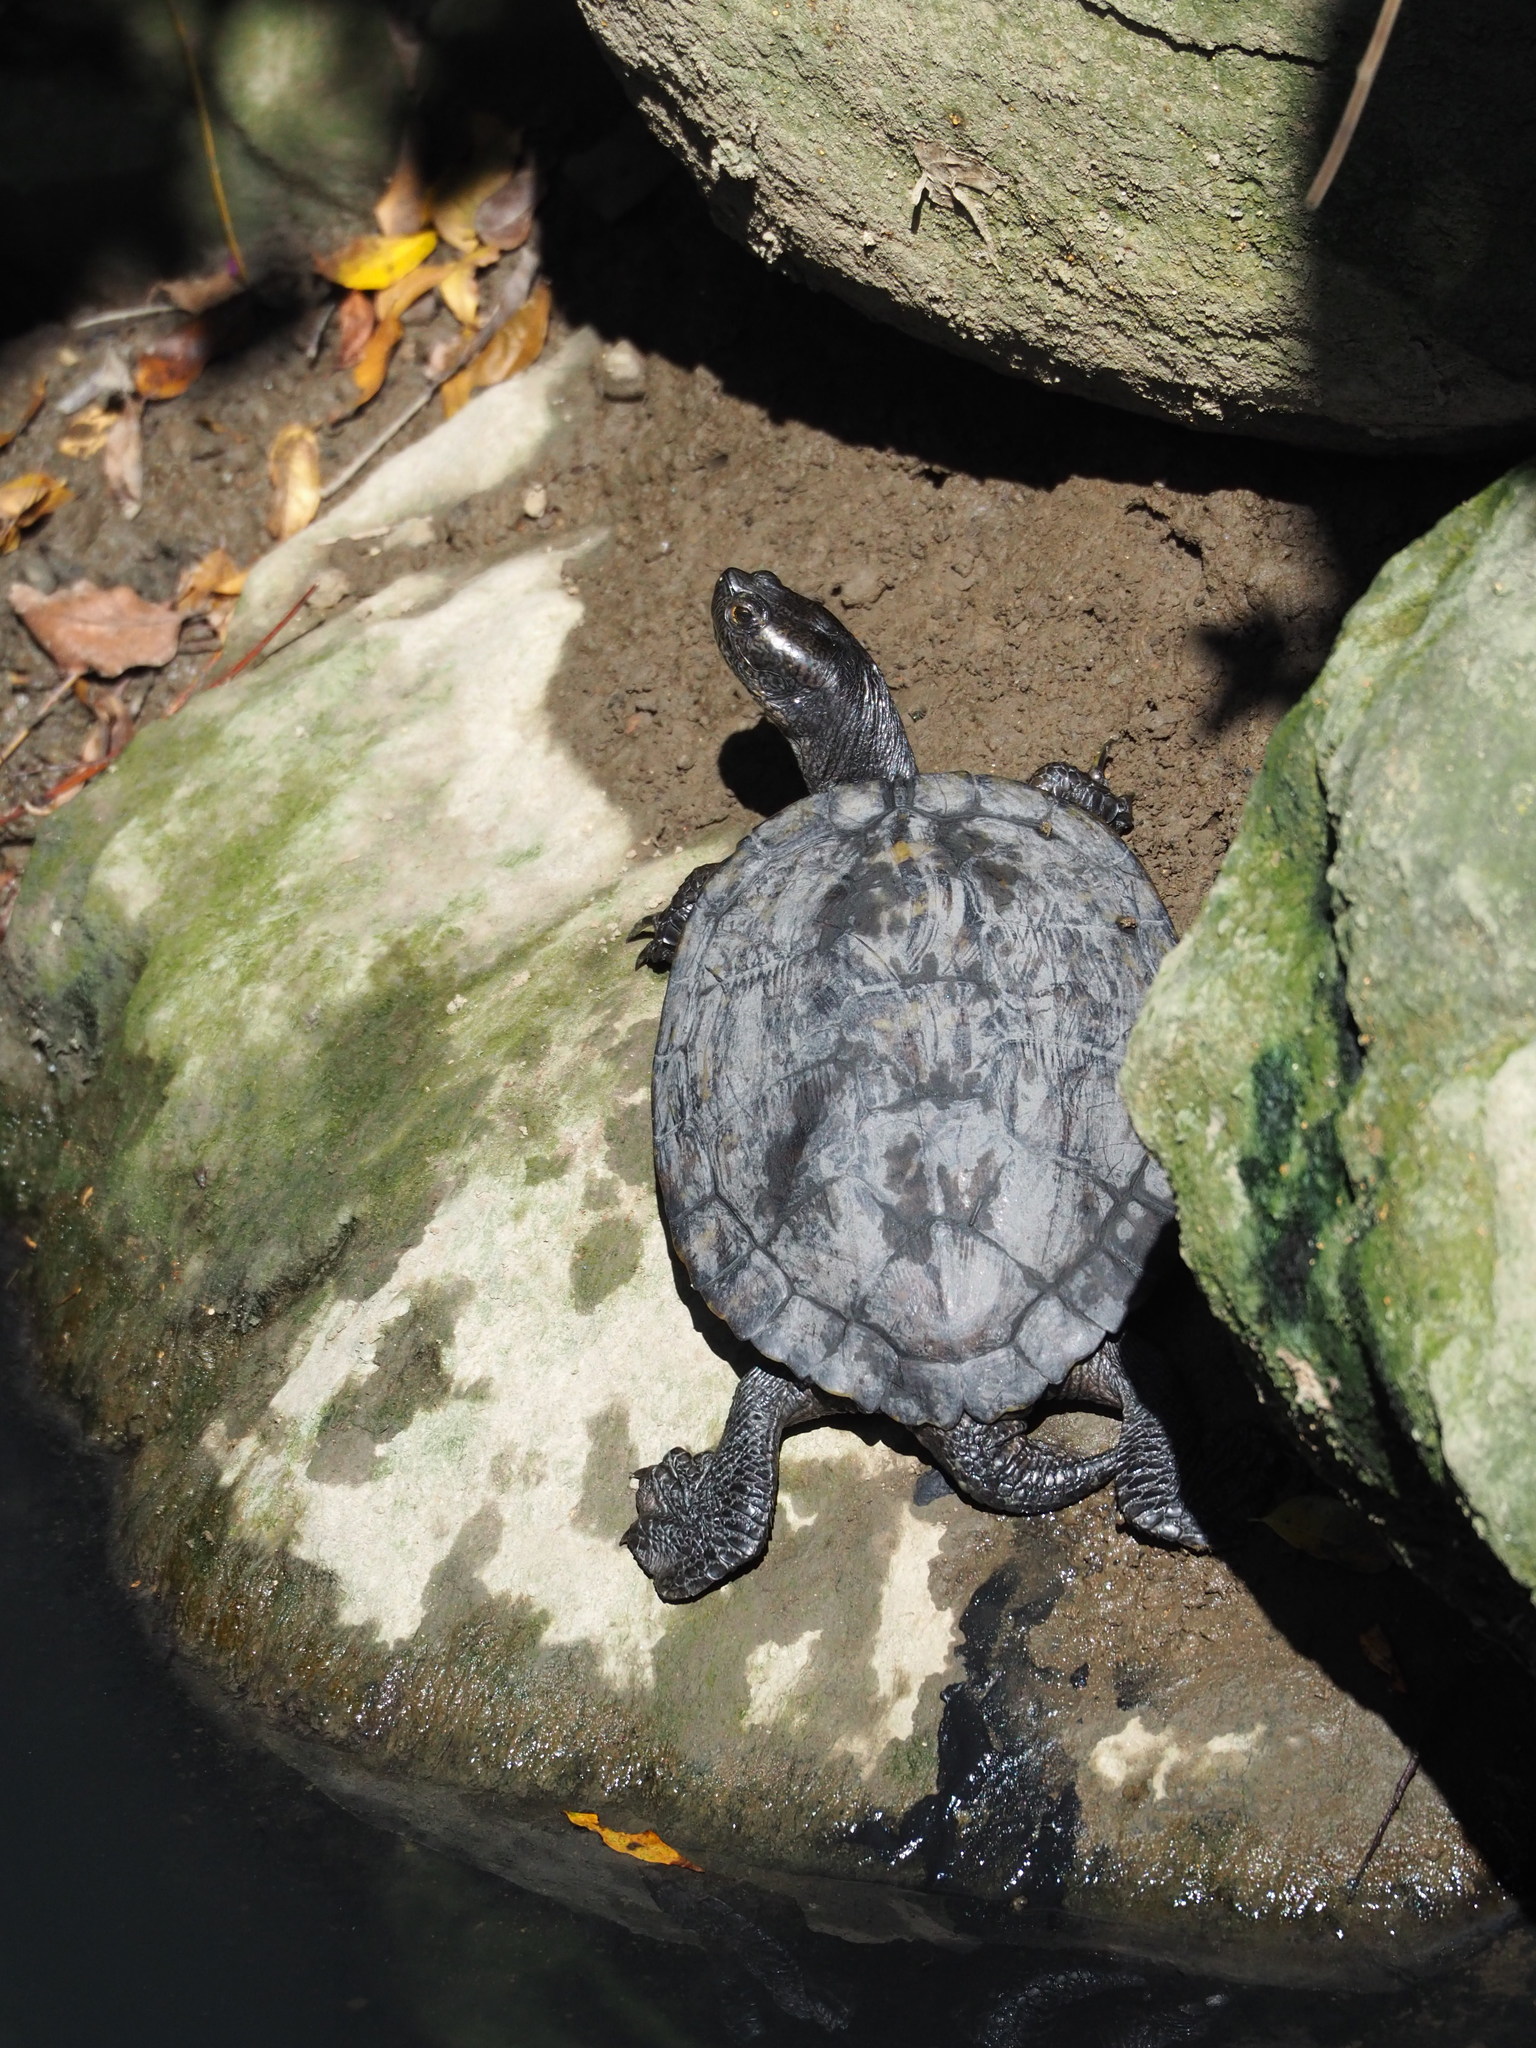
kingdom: Animalia
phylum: Chordata
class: Testudines
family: Emydidae
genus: Trachemys
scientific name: Trachemys scripta
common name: Slider
